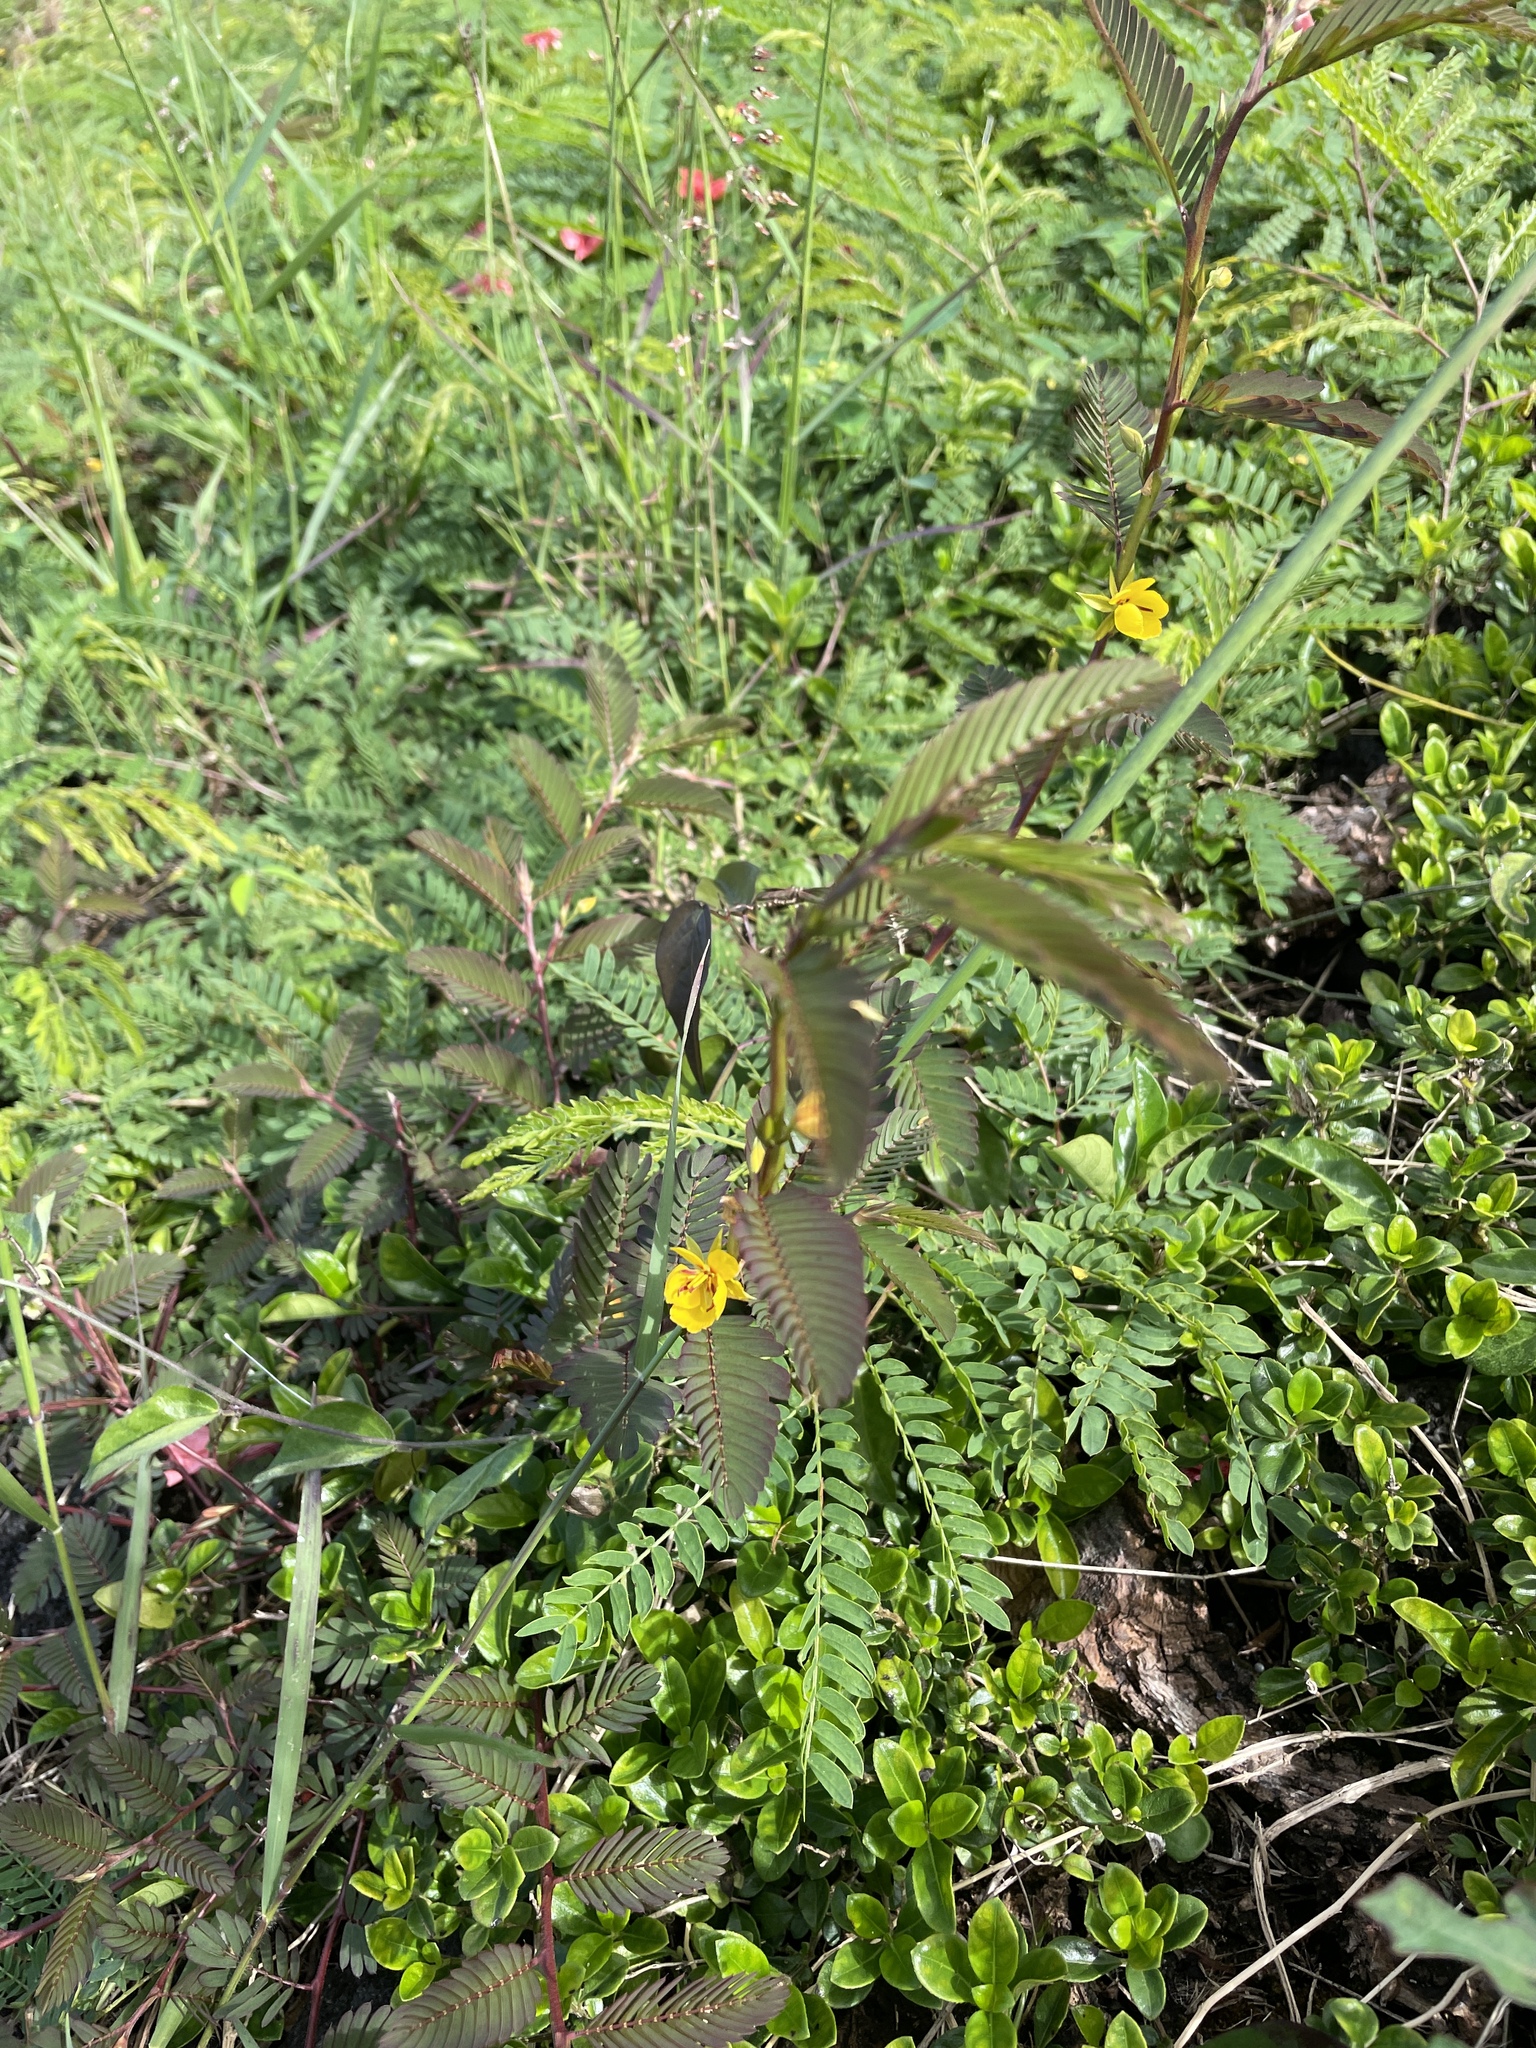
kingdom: Plantae
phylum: Tracheophyta
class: Magnoliopsida
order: Fabales
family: Fabaceae
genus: Chamaecrista
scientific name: Chamaecrista nictitans
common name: Sensitive cassia
